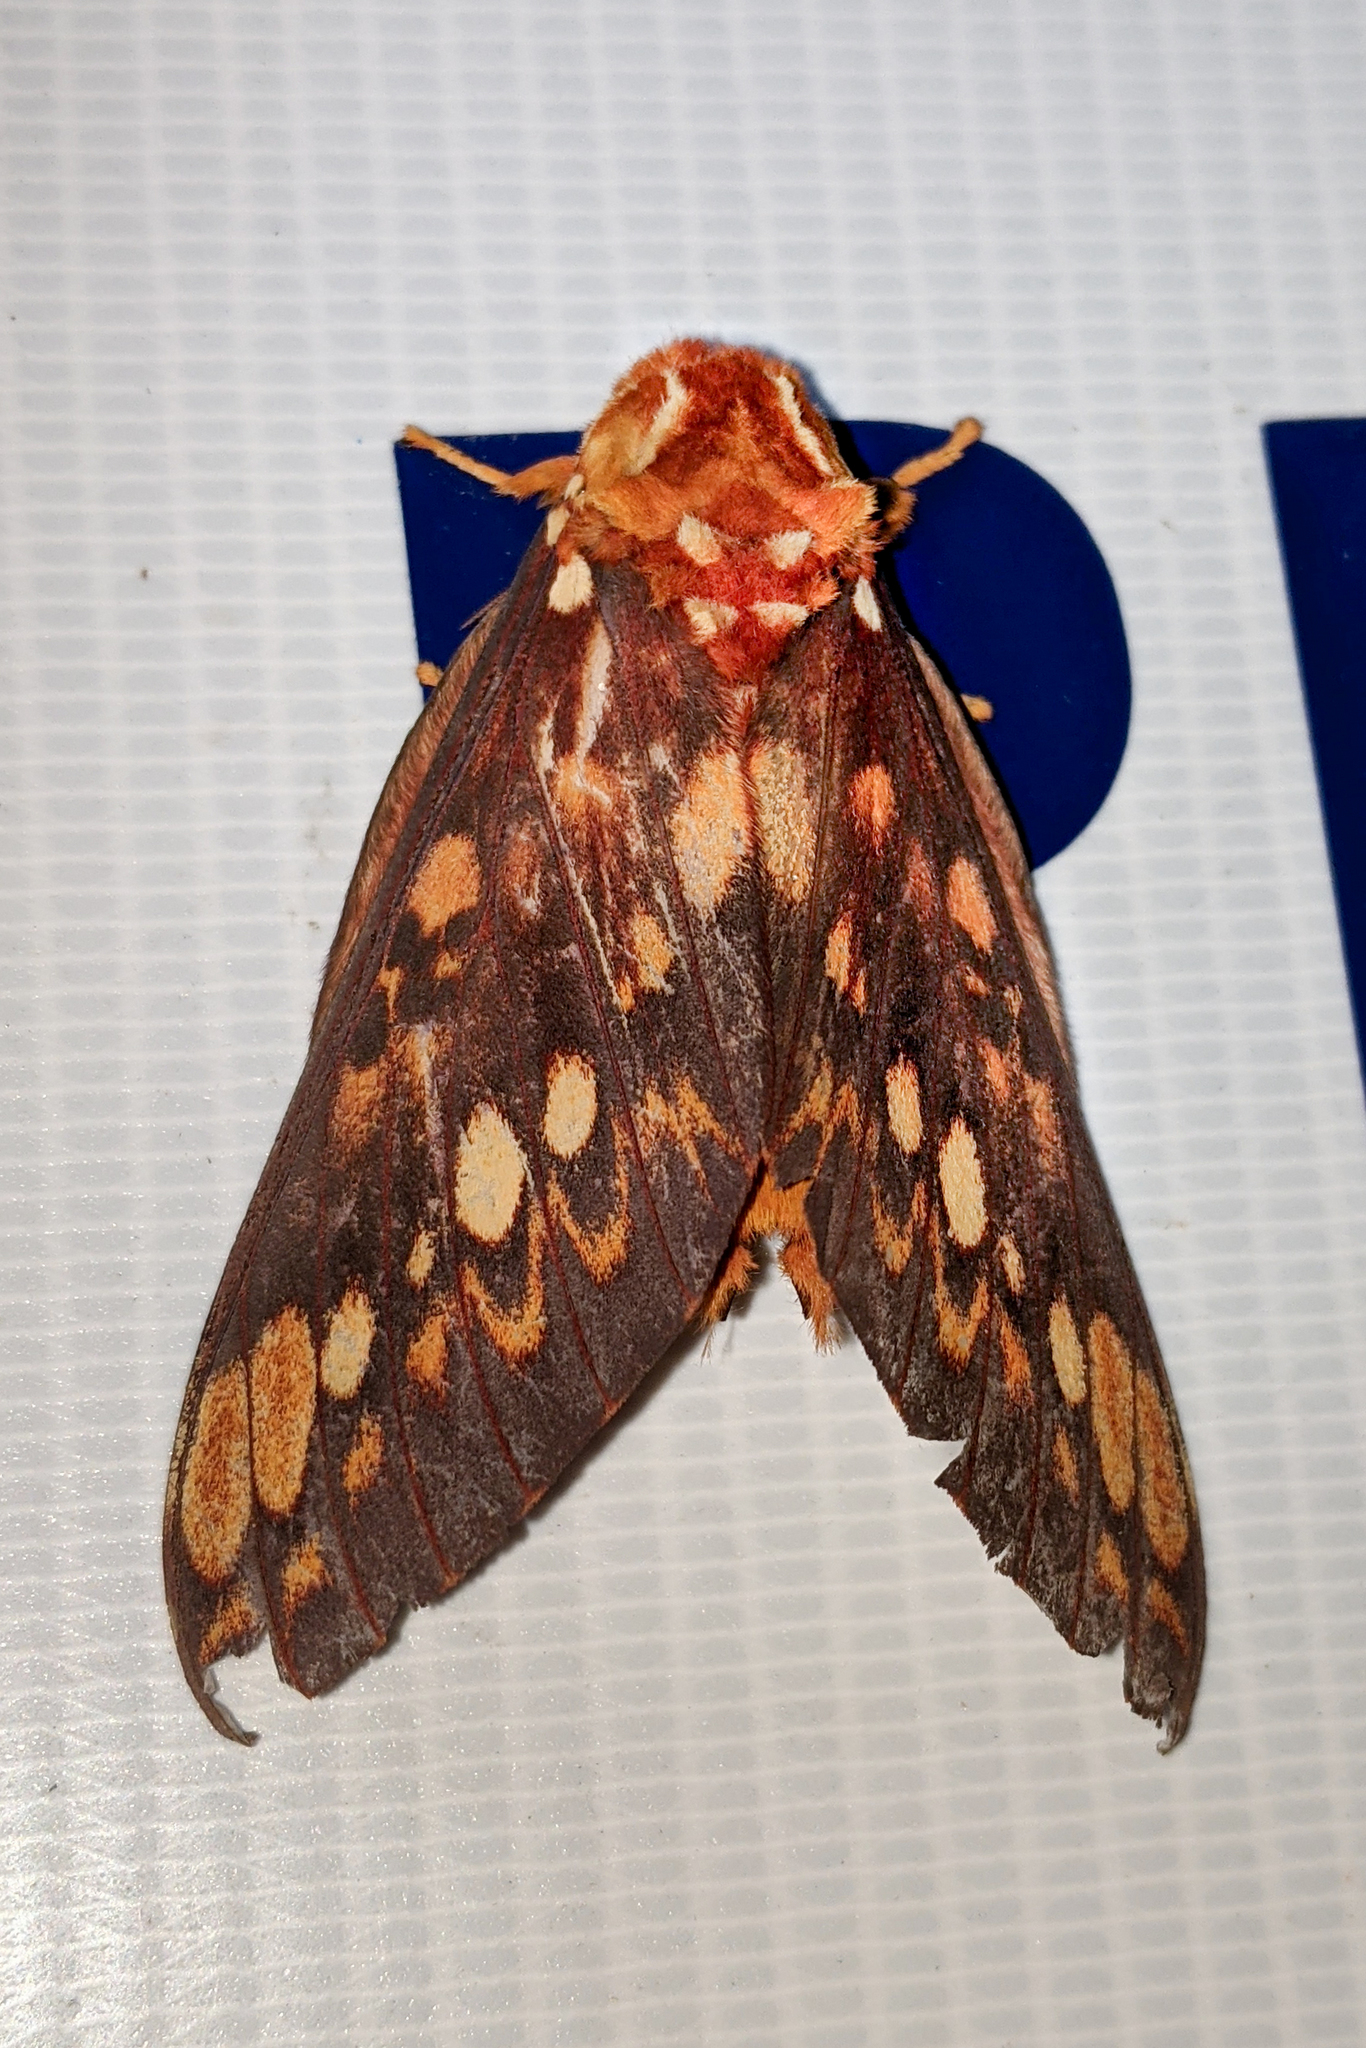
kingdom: Animalia
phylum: Arthropoda
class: Insecta
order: Lepidoptera
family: Saturniidae
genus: Citheronia
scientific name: Citheronia andina
